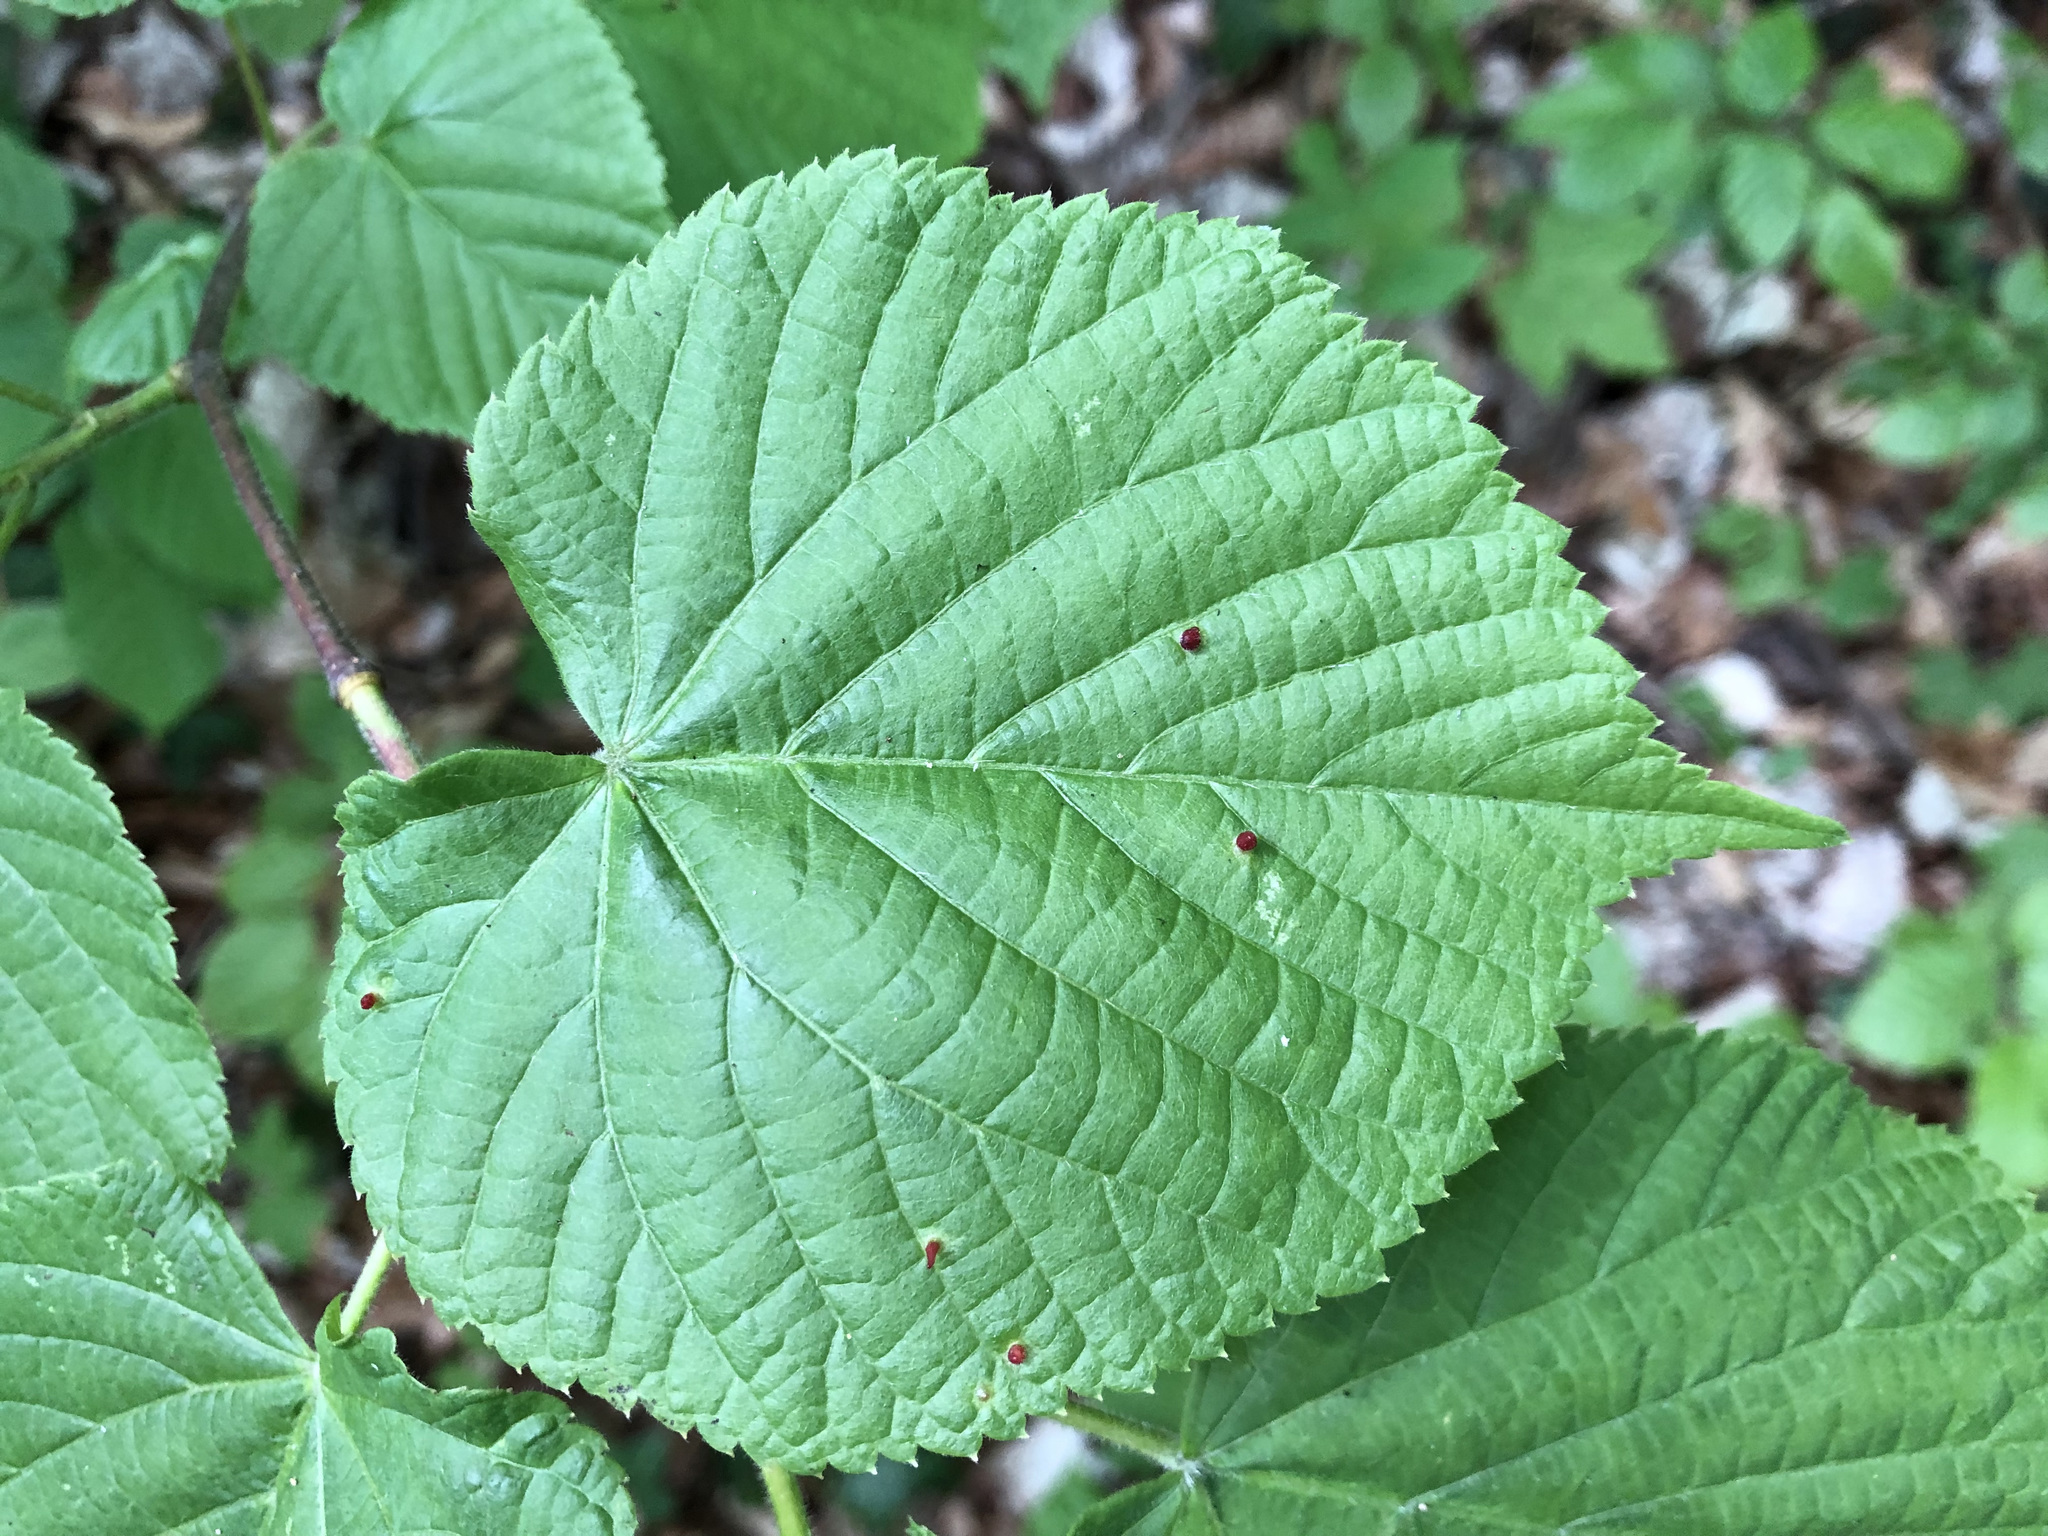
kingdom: Plantae
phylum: Tracheophyta
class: Magnoliopsida
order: Malvales
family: Malvaceae
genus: Tilia
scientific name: Tilia platyphyllos
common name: Large-leaved lime
